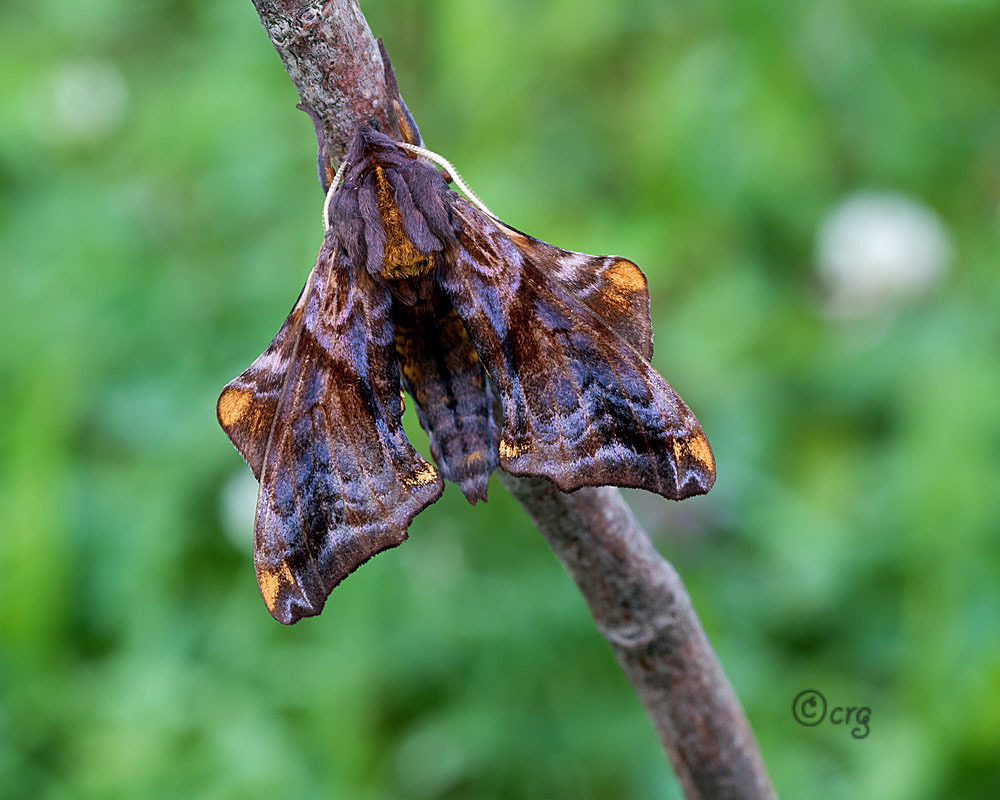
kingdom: Animalia
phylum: Arthropoda
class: Insecta
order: Lepidoptera
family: Sphingidae
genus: Paonias
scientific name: Paonias myops
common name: Small-eyed sphinx
